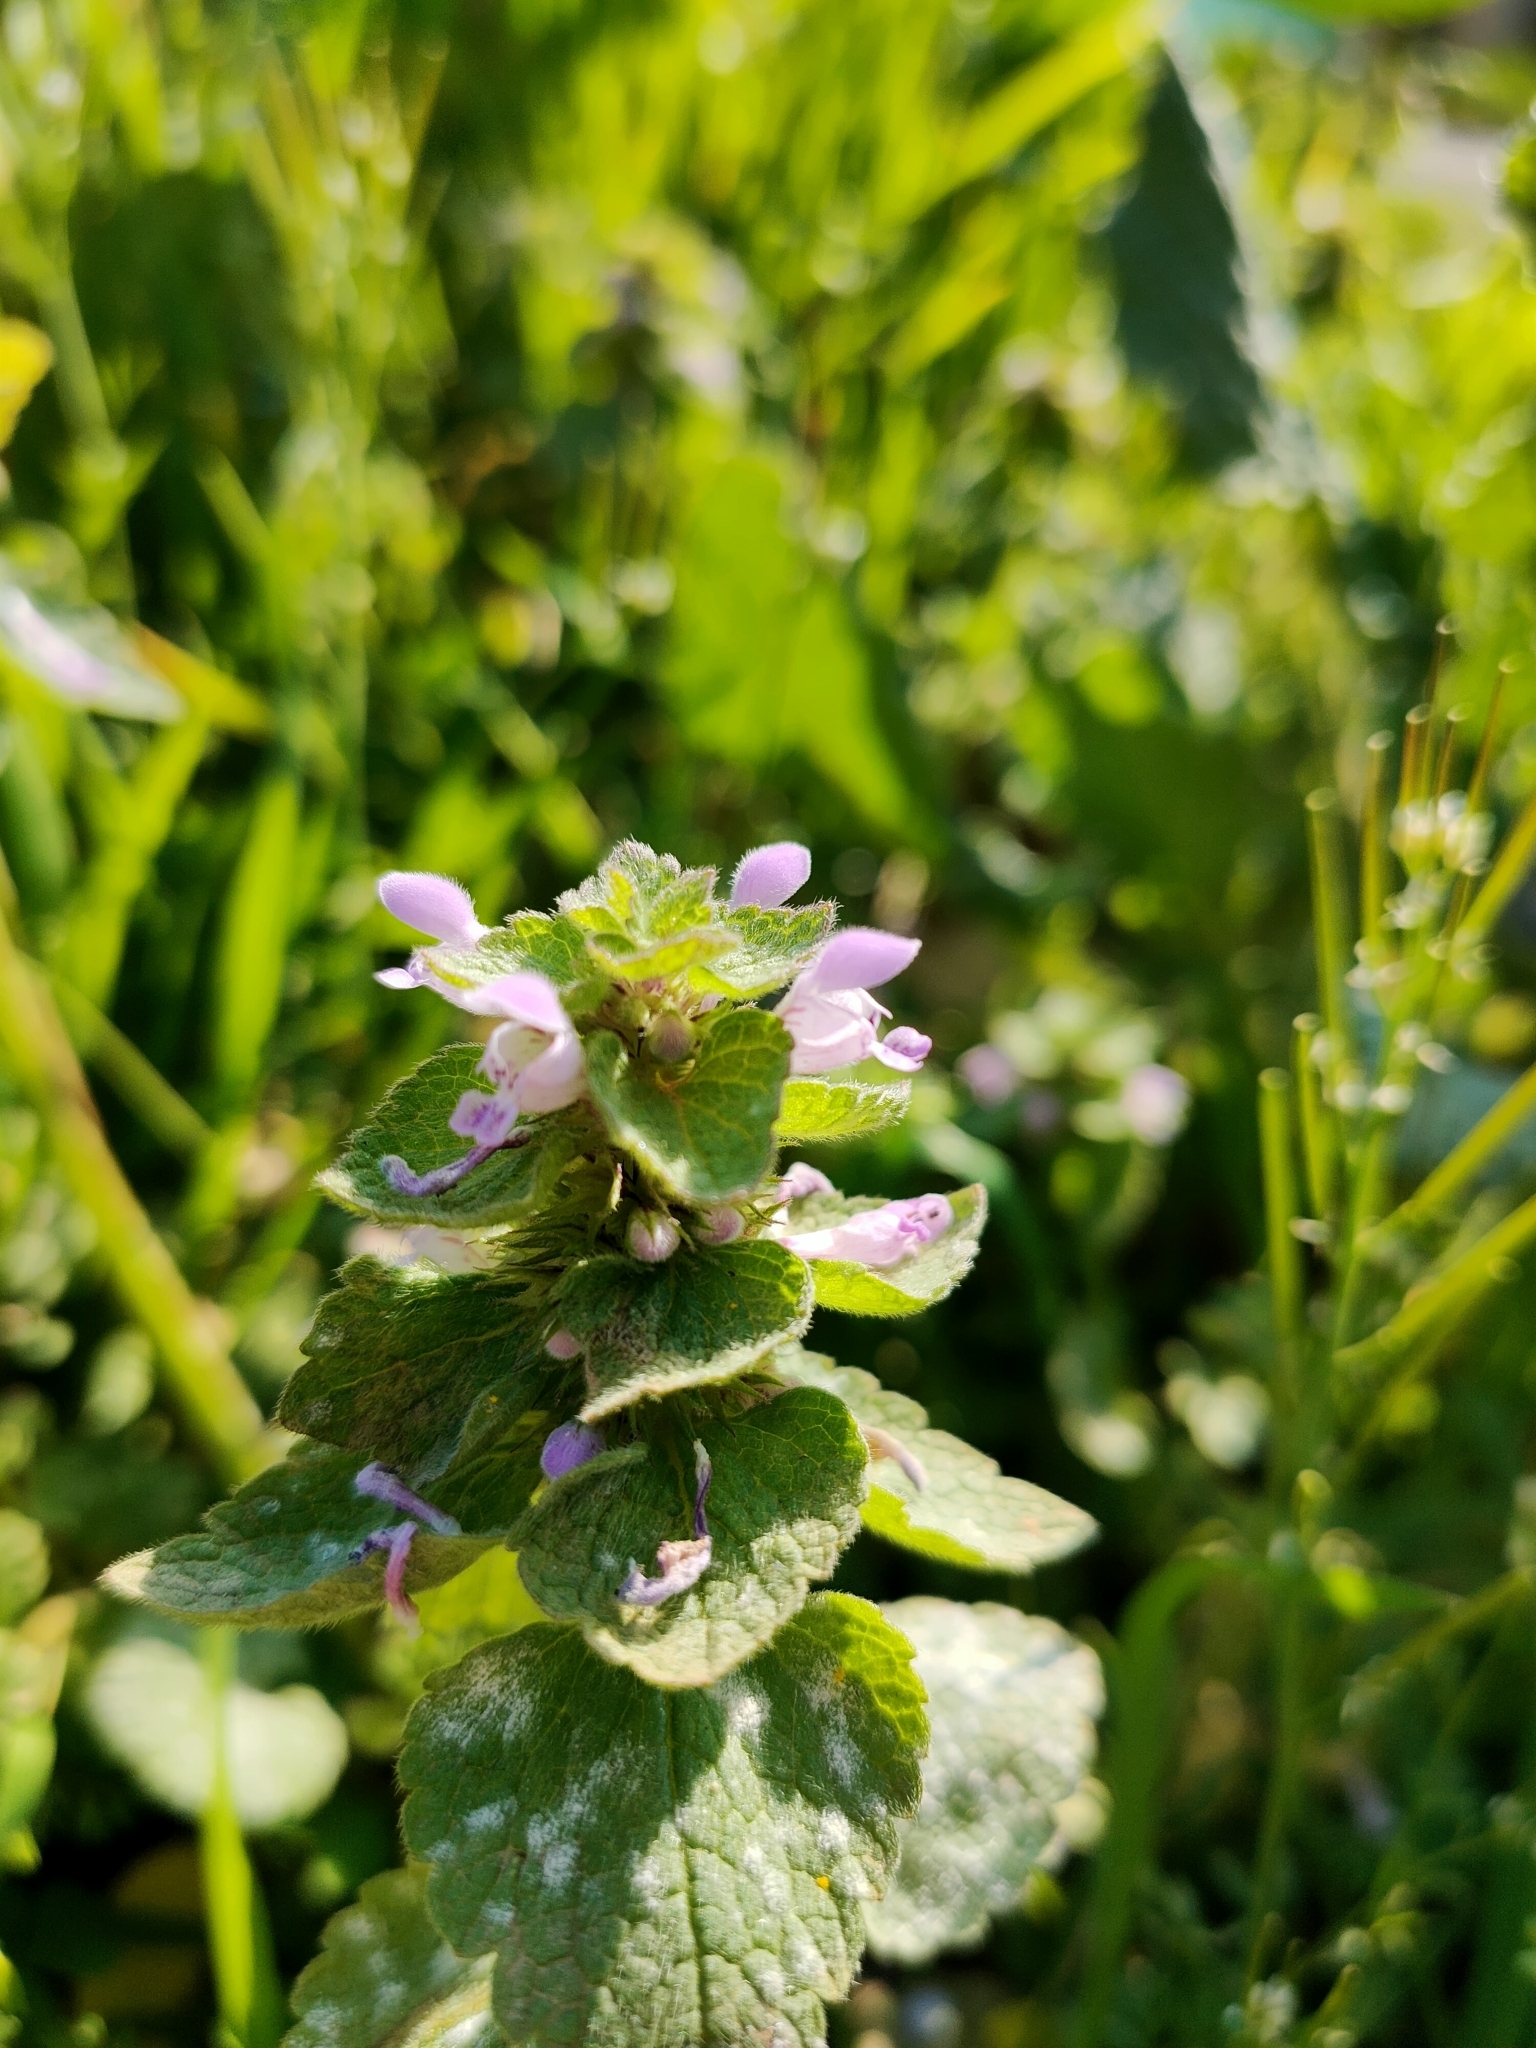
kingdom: Plantae
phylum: Tracheophyta
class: Magnoliopsida
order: Lamiales
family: Lamiaceae
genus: Lamium
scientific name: Lamium purpureum
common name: Red dead-nettle
